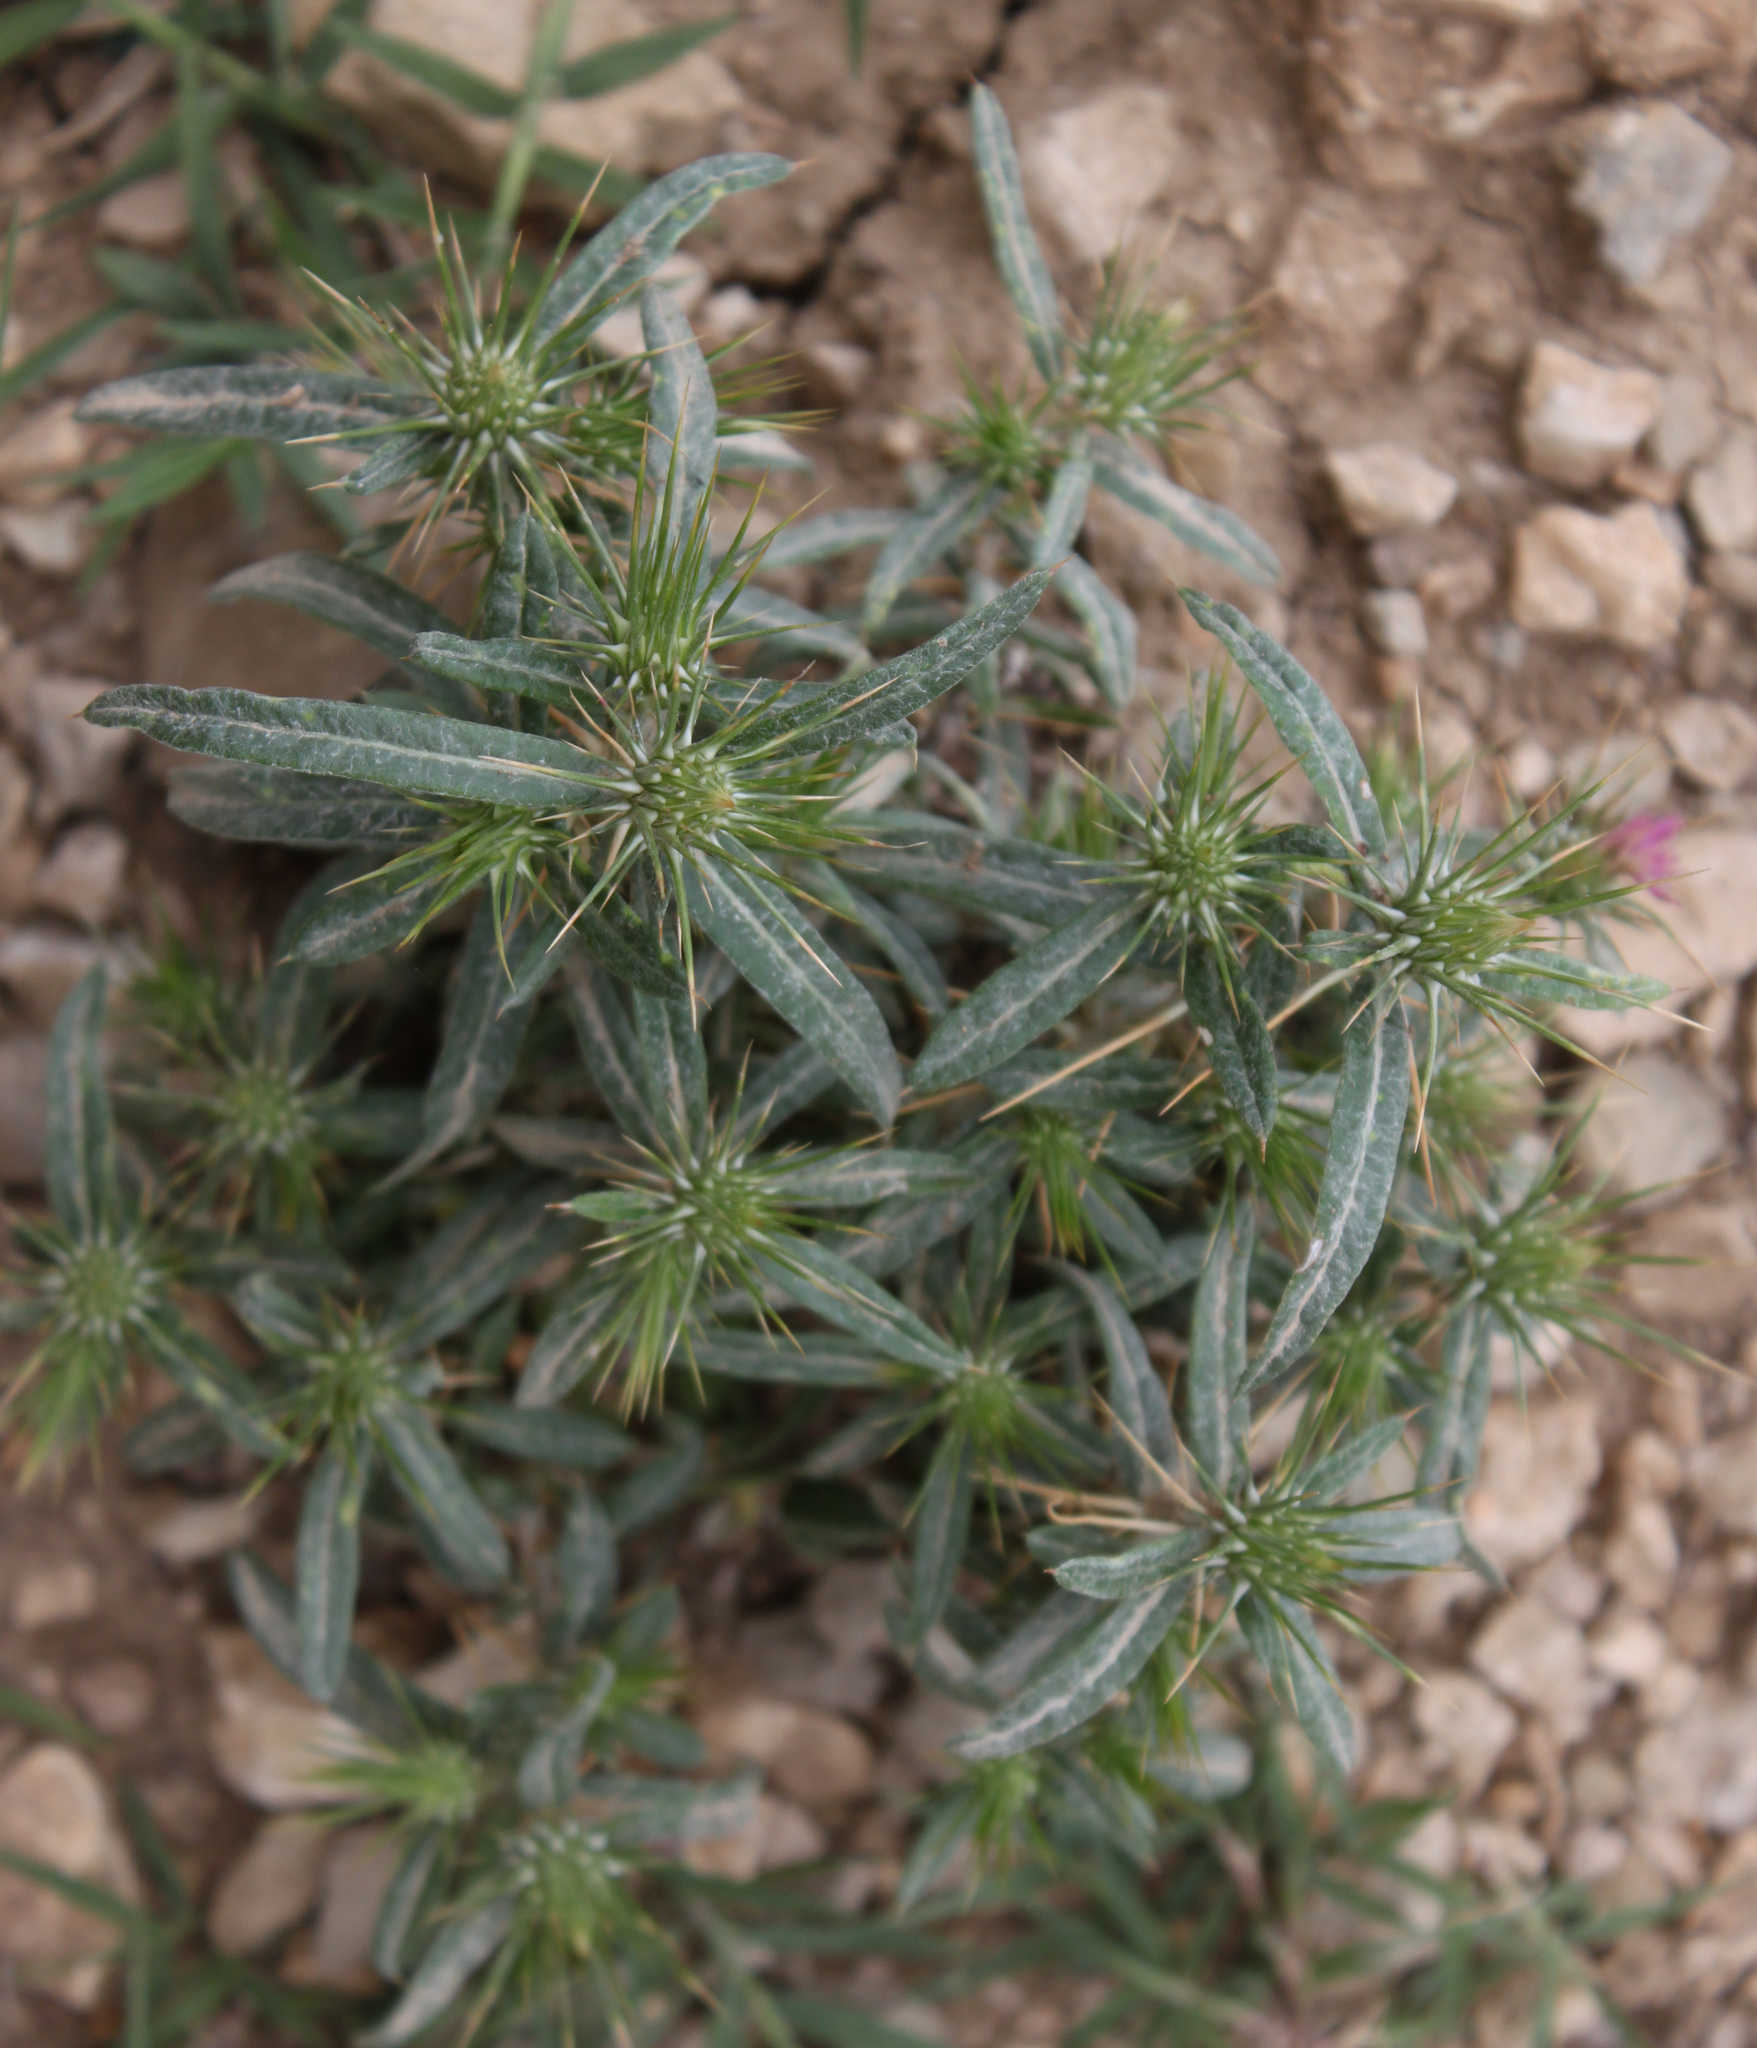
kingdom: Plantae
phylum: Tracheophyta
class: Magnoliopsida
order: Asterales
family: Asteraceae
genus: Xanthium
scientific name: Xanthium spinosum
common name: Spiny cocklebur
